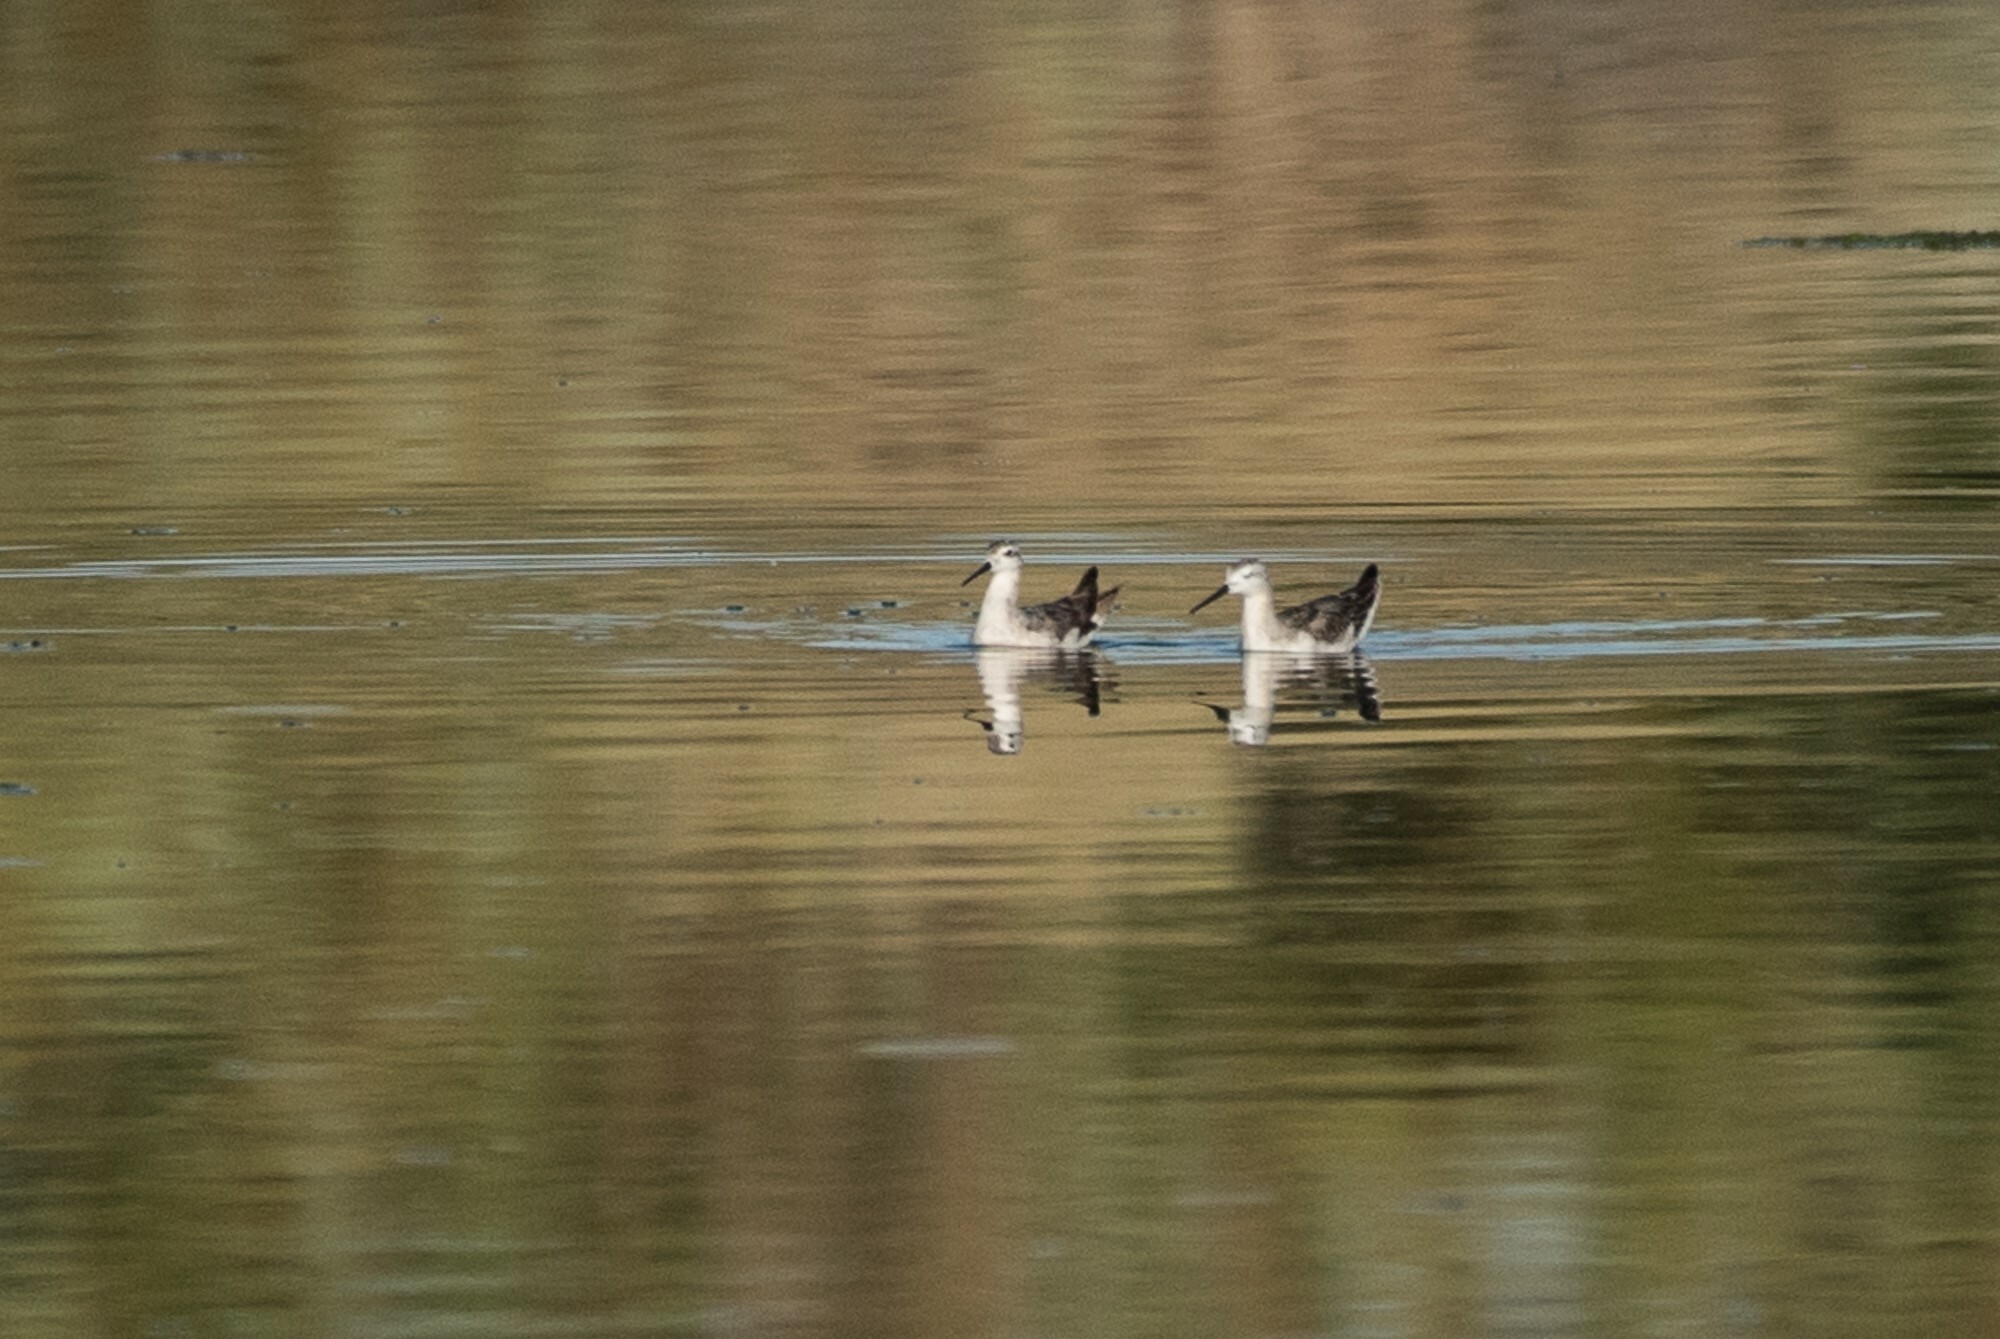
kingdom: Animalia
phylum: Chordata
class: Aves
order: Charadriiformes
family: Scolopacidae
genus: Phalaropus
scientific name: Phalaropus tricolor
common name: Wilson's phalarope
